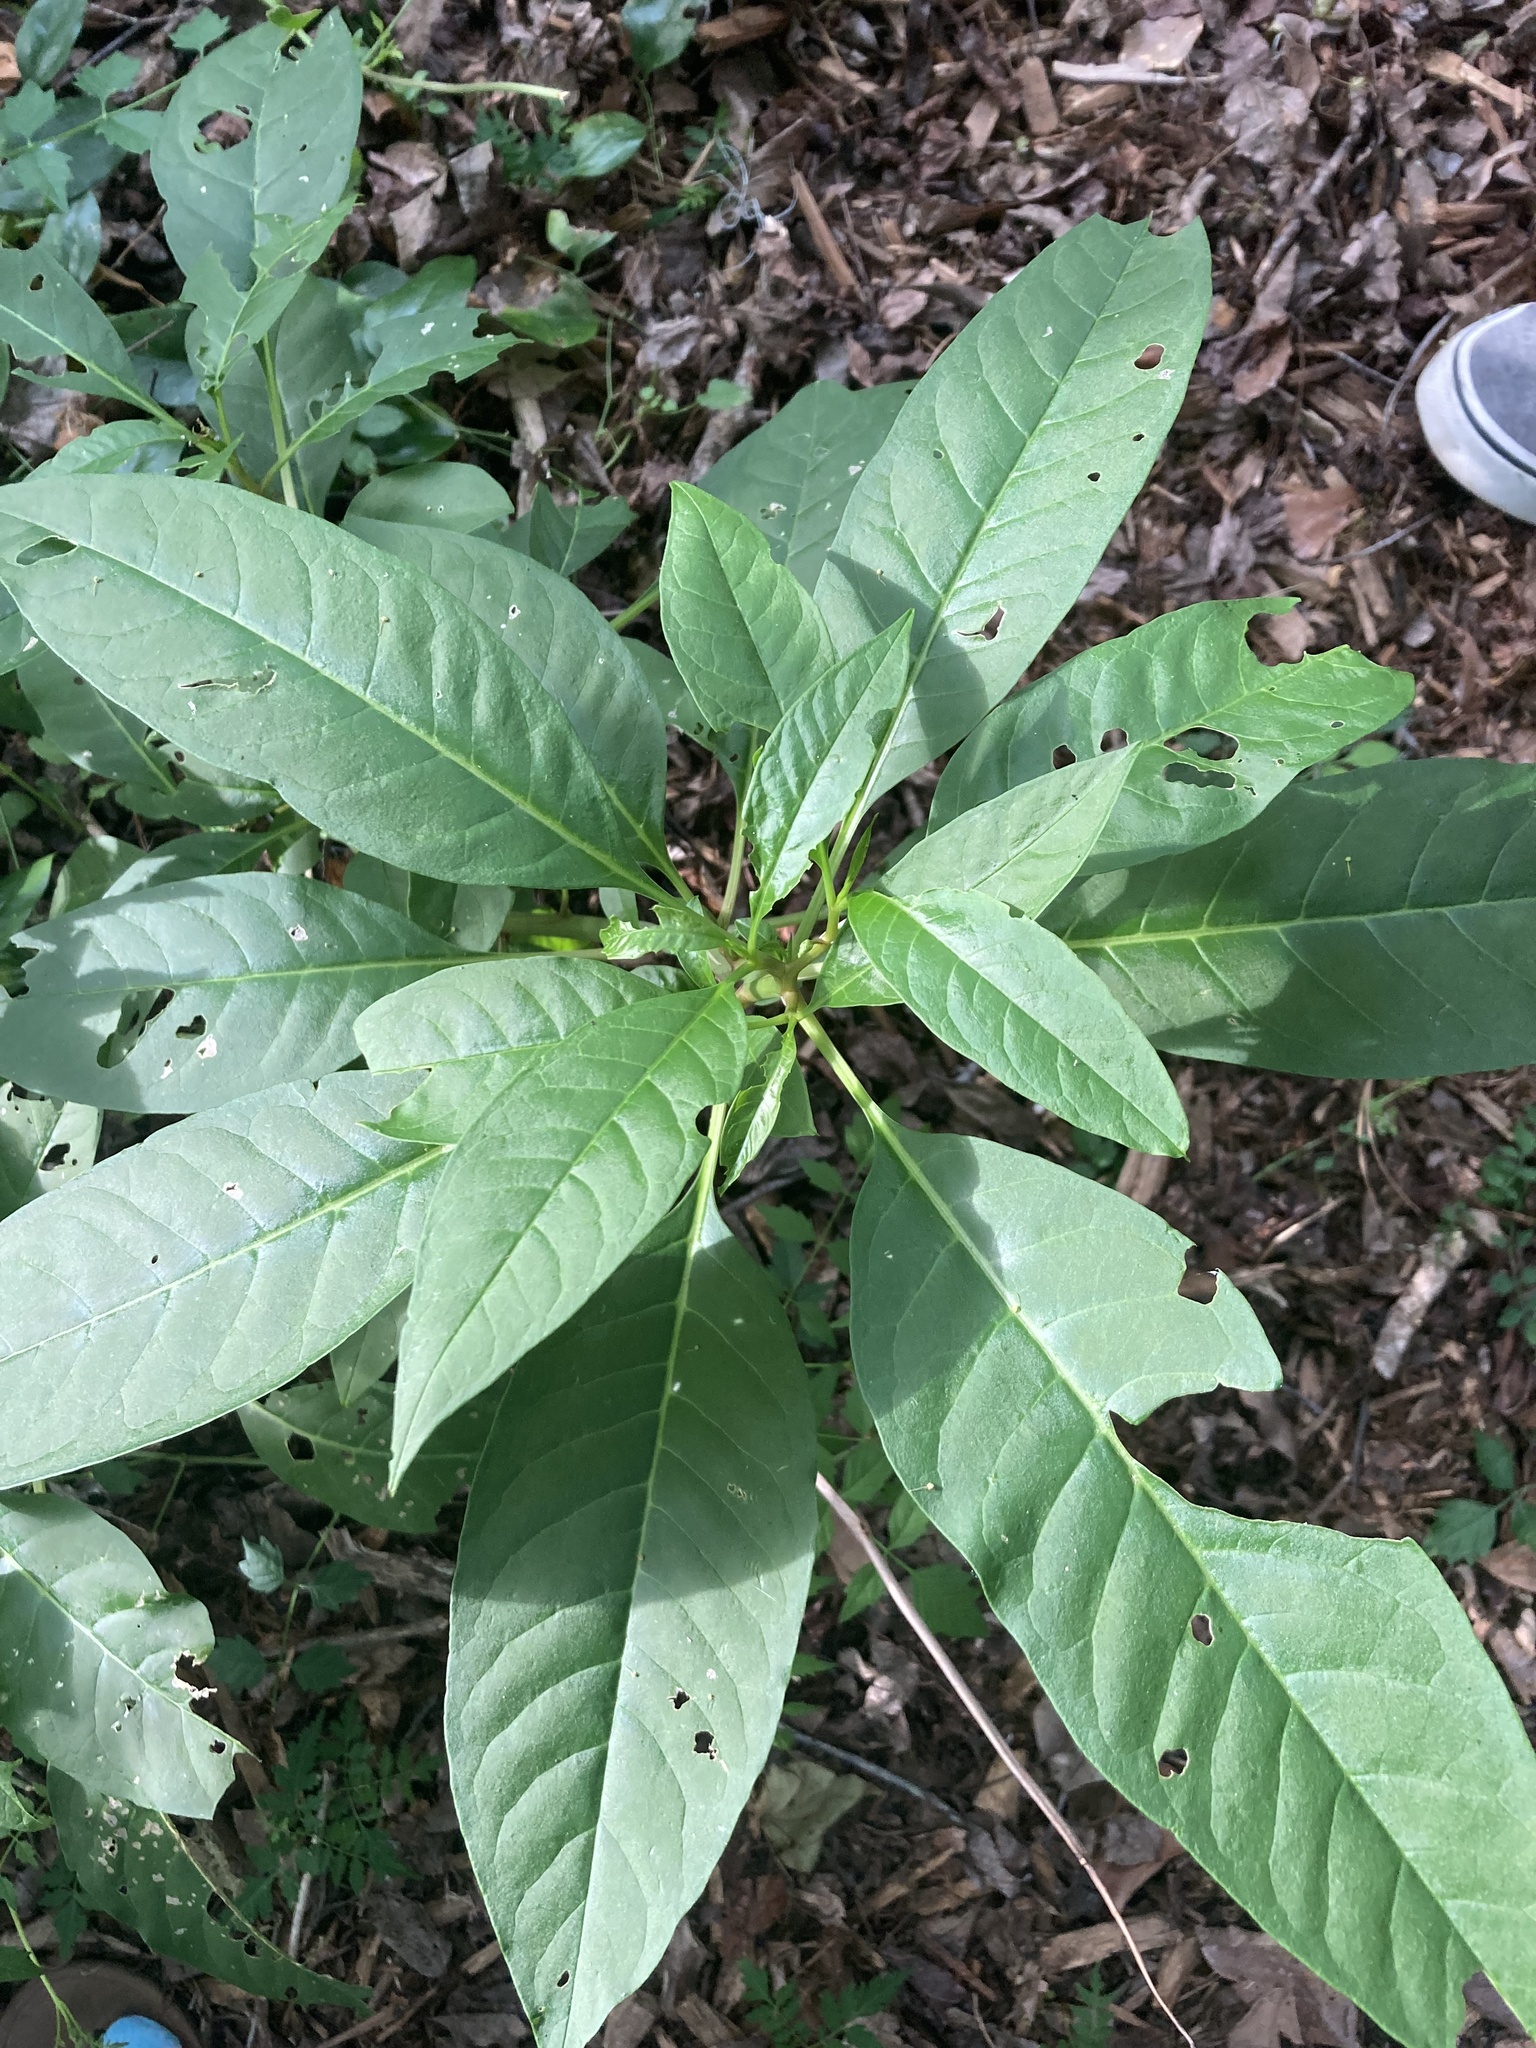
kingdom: Plantae
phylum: Tracheophyta
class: Magnoliopsida
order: Caryophyllales
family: Phytolaccaceae
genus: Phytolacca
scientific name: Phytolacca americana
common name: American pokeweed
